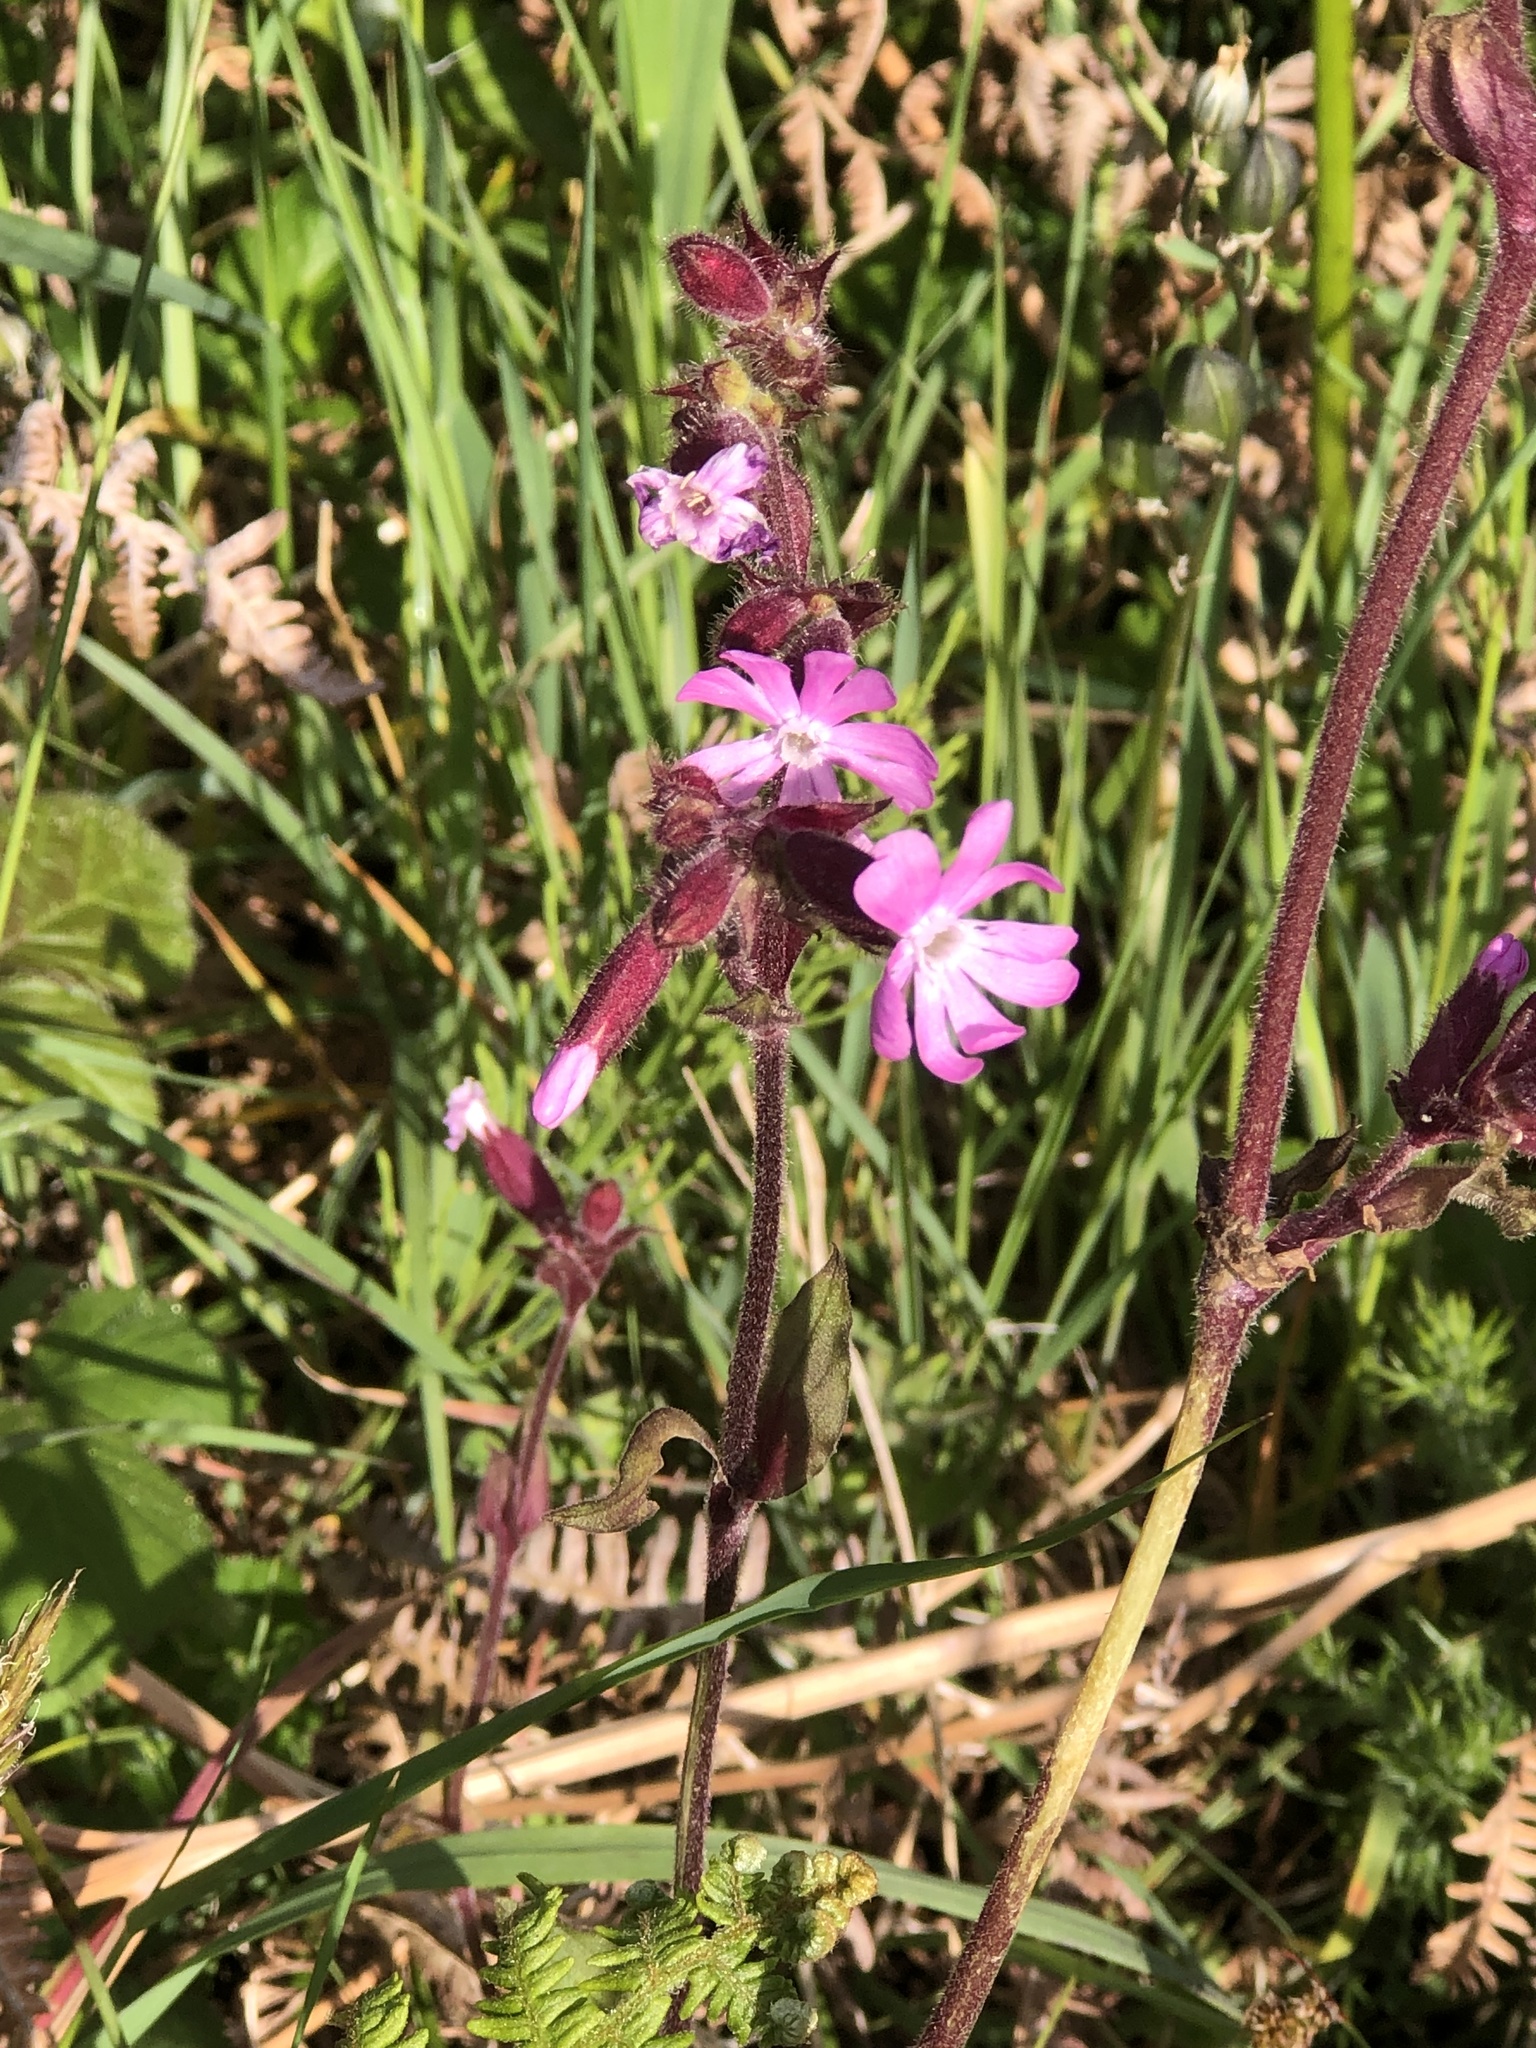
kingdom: Plantae
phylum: Tracheophyta
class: Magnoliopsida
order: Caryophyllales
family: Caryophyllaceae
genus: Silene
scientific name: Silene dioica
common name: Red campion
